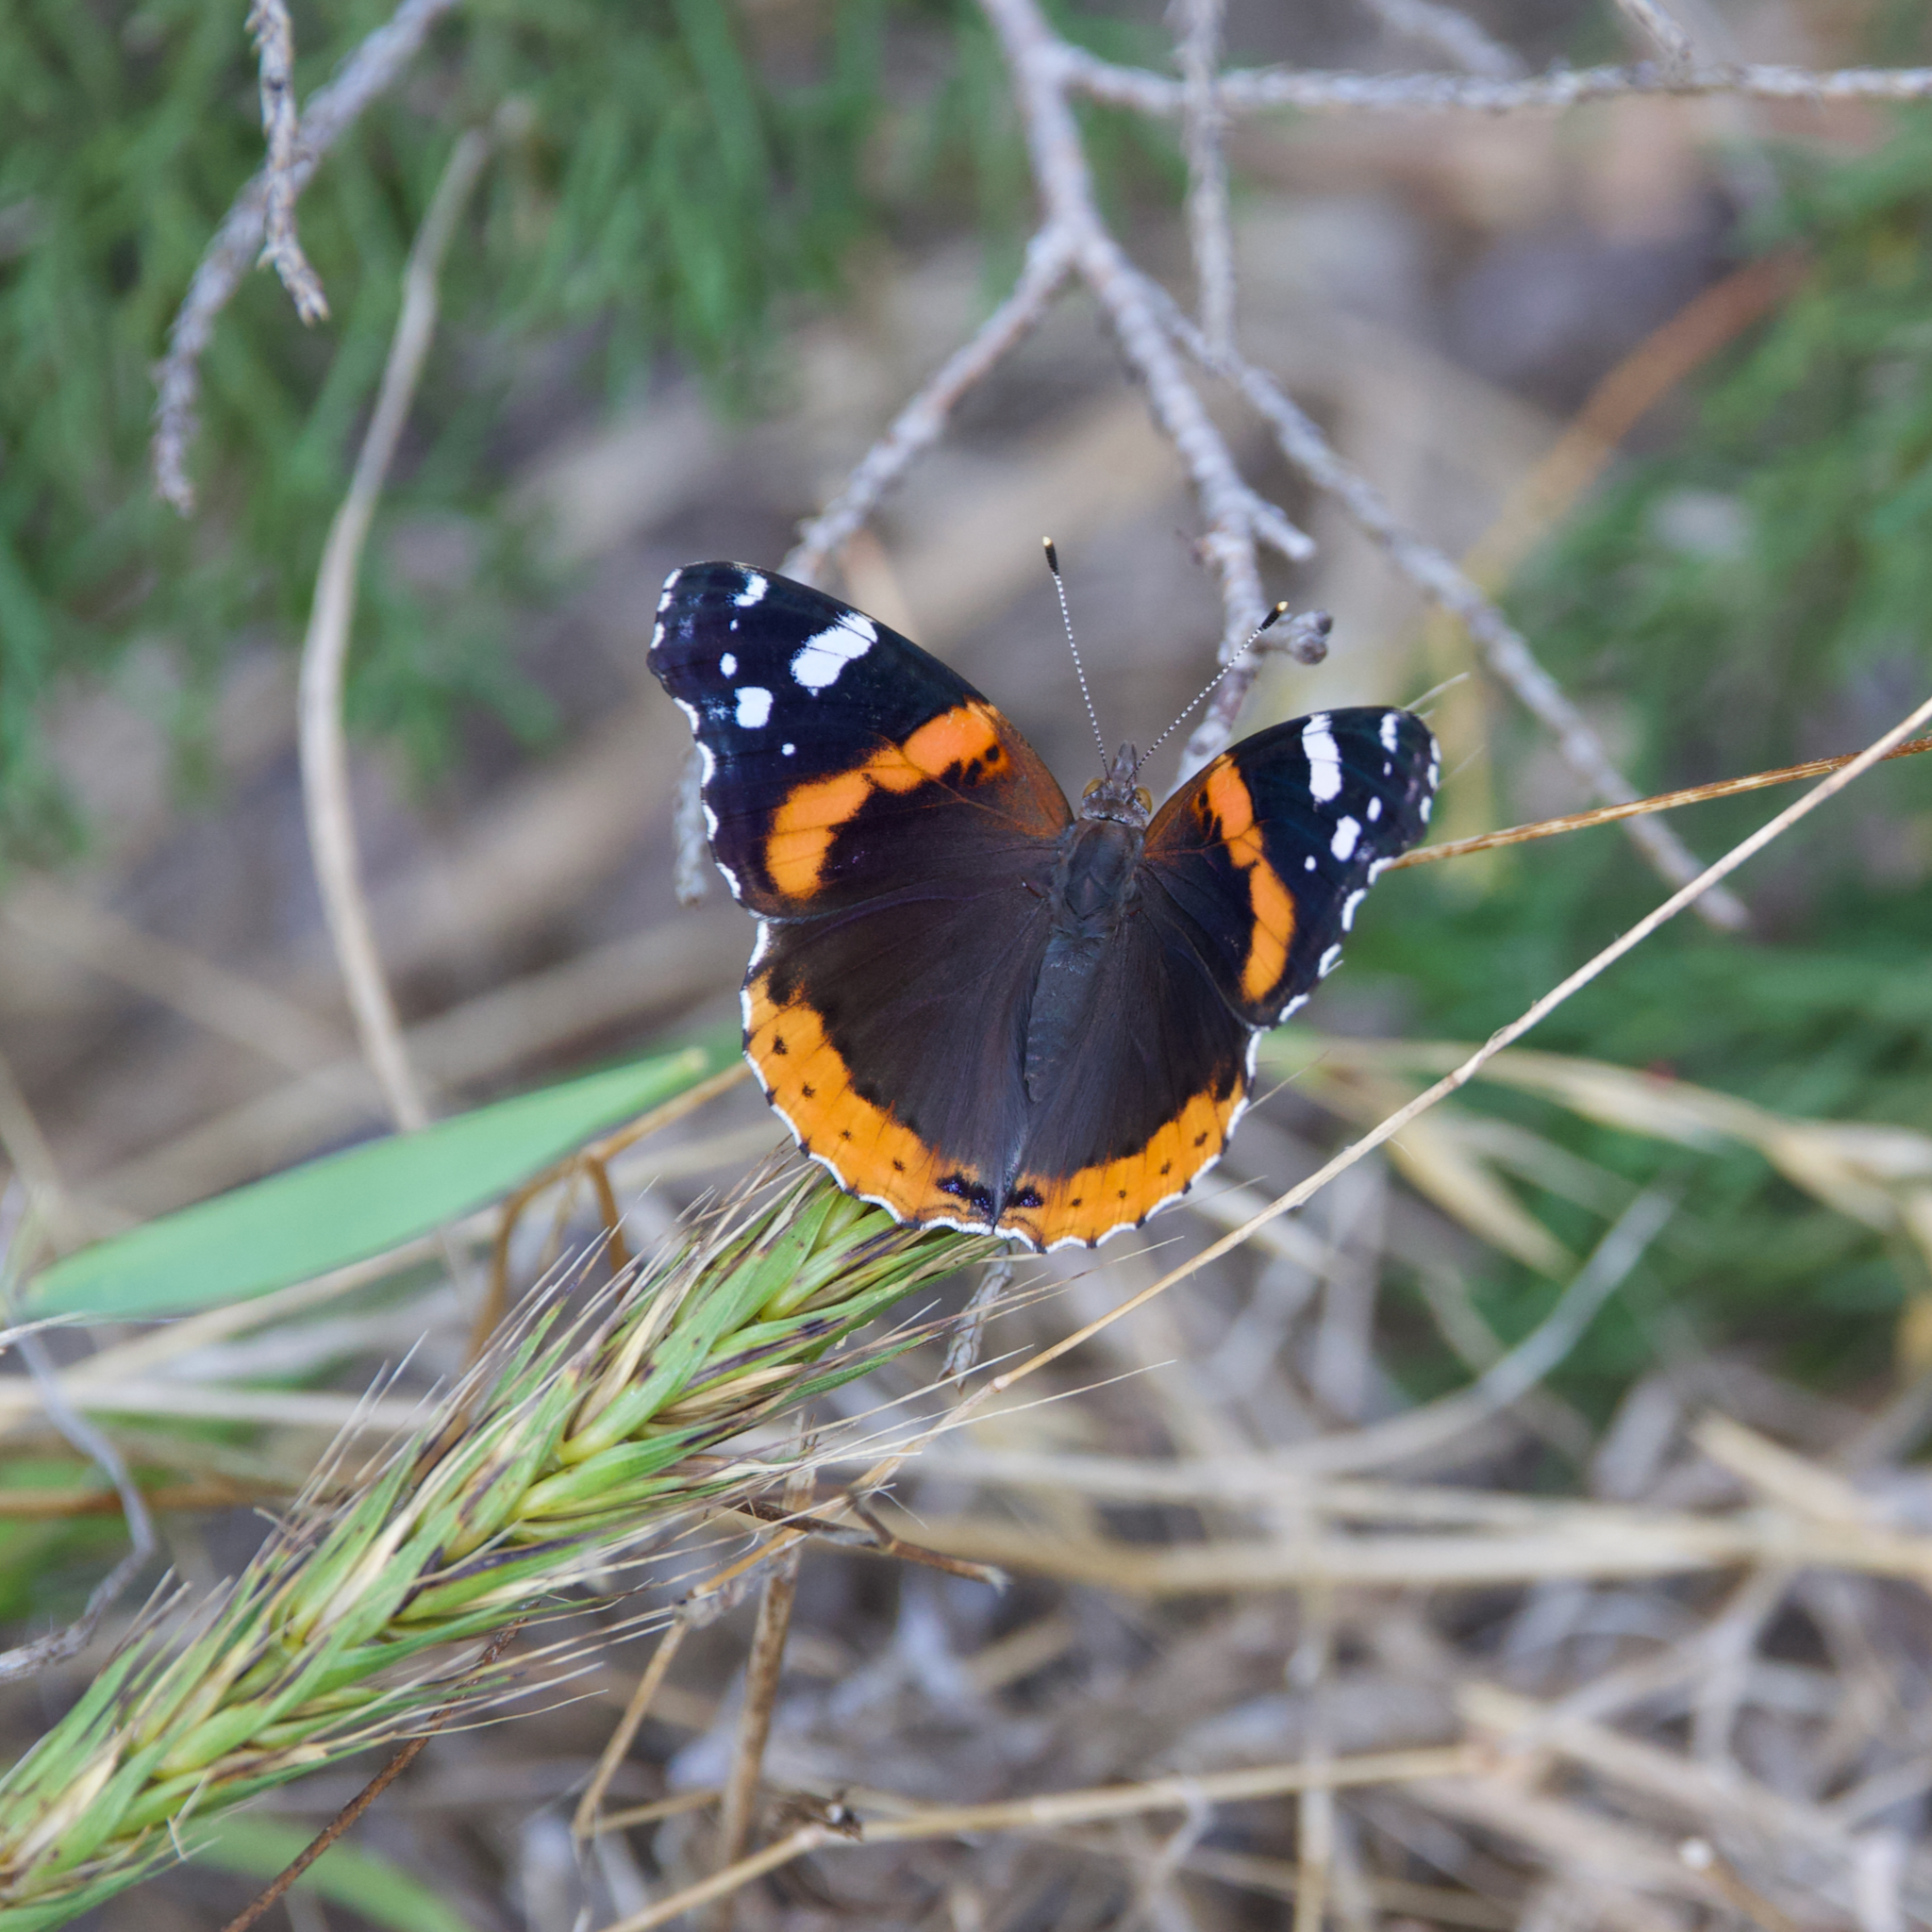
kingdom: Animalia
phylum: Arthropoda
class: Insecta
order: Lepidoptera
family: Nymphalidae
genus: Vanessa
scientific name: Vanessa atalanta
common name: Red admiral
